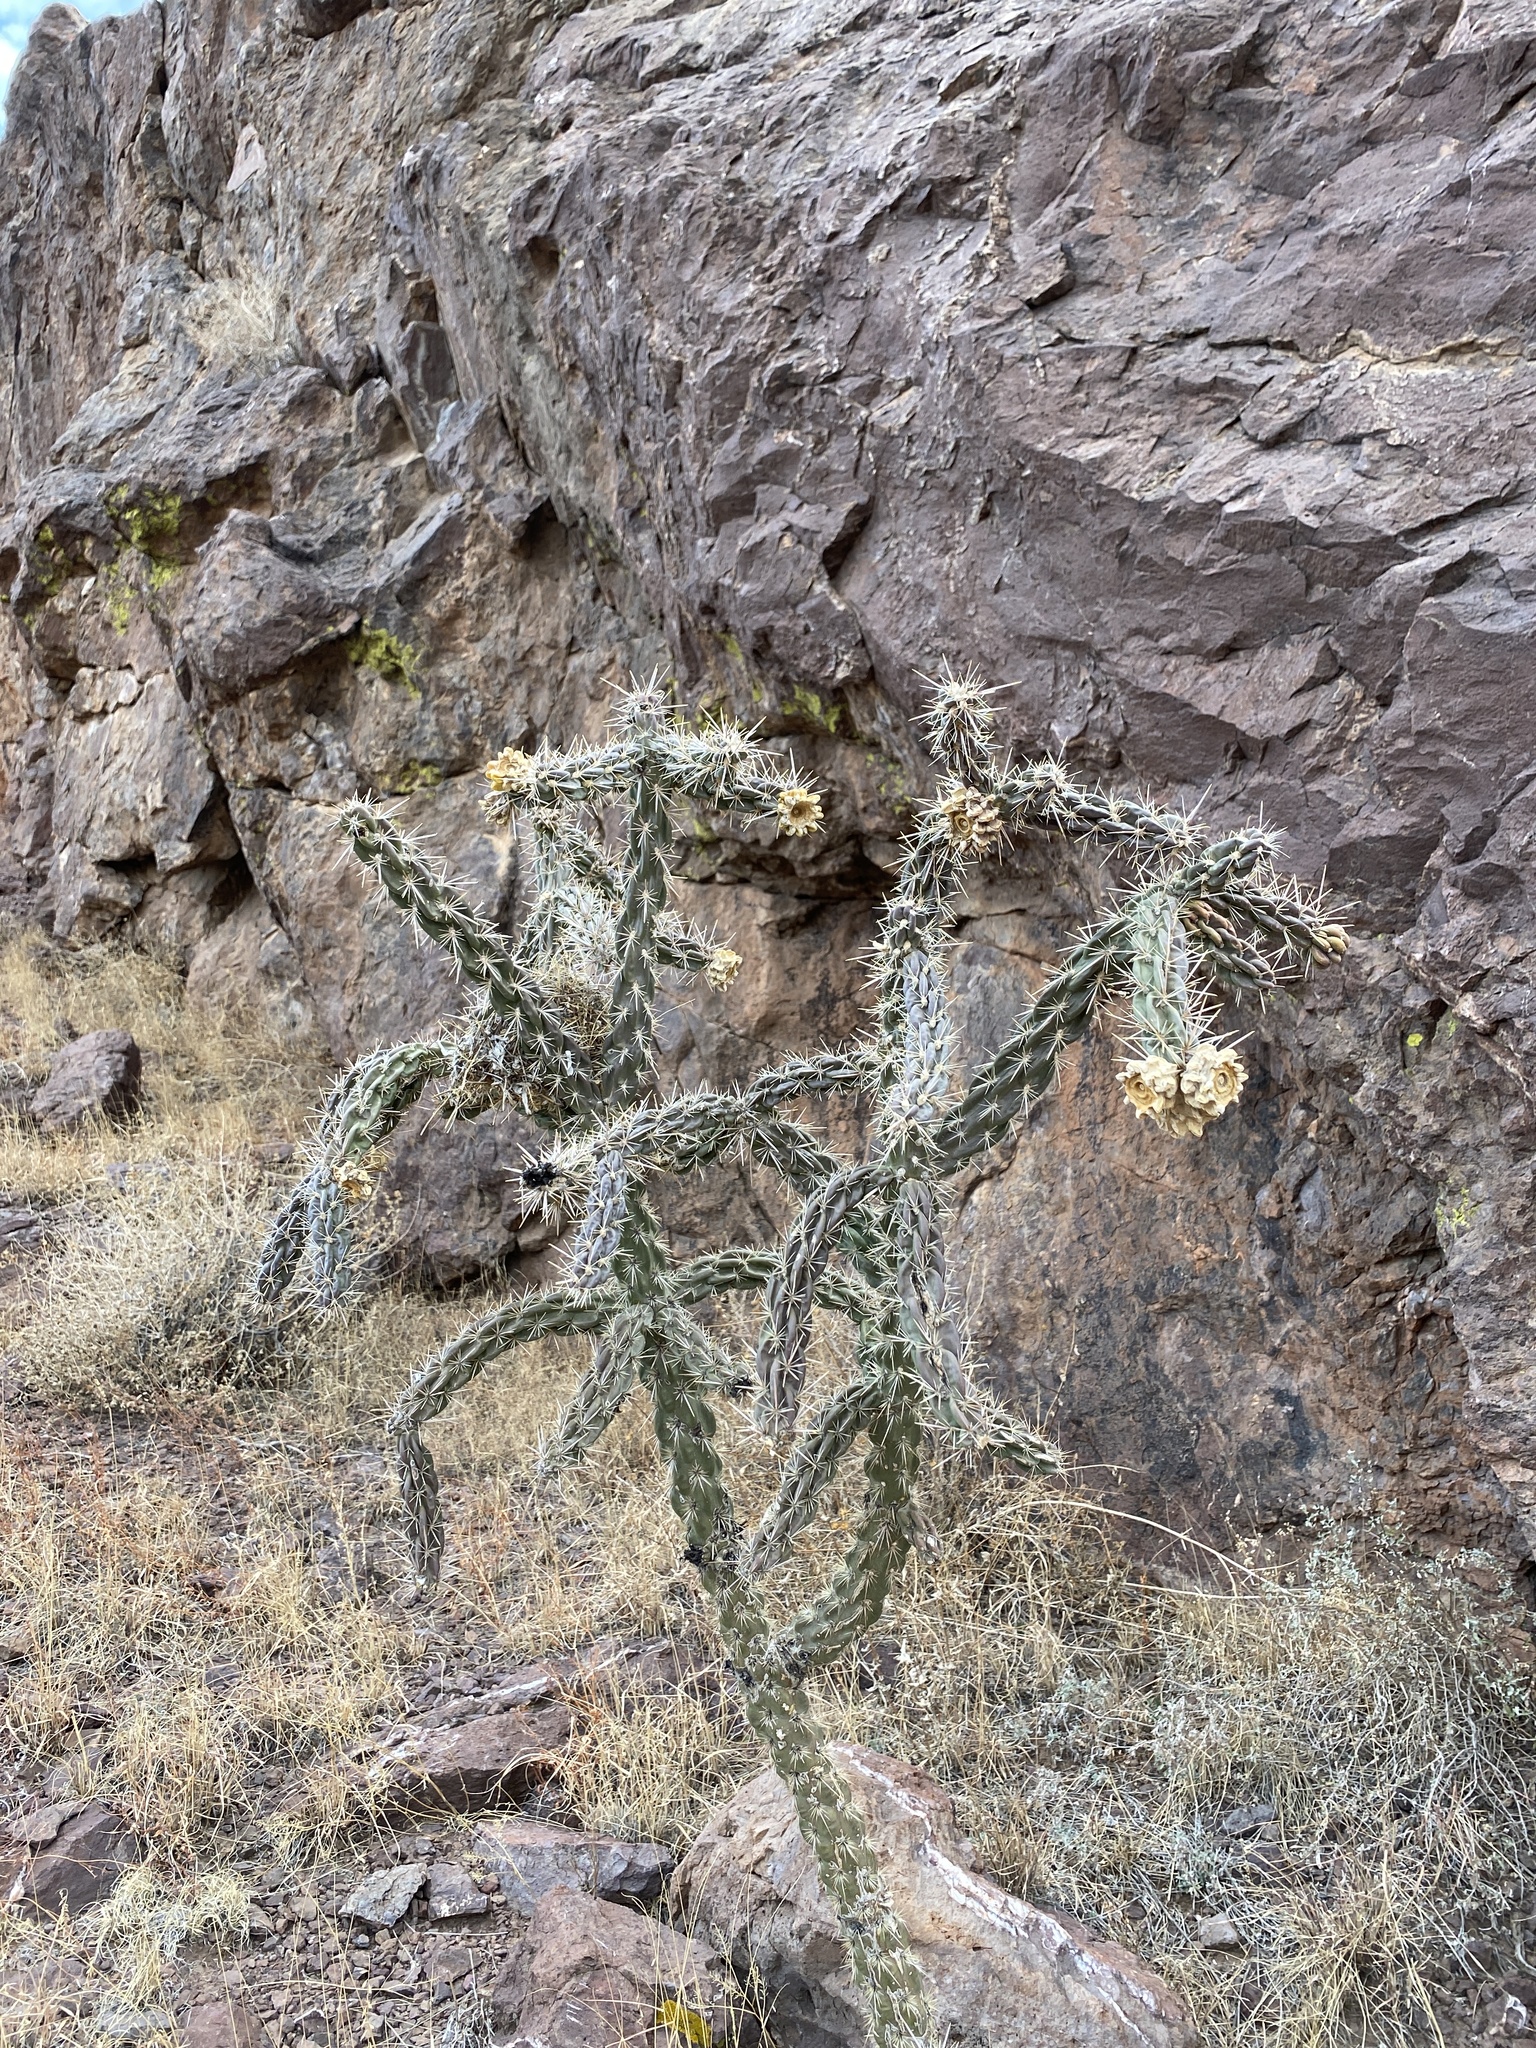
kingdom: Plantae
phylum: Tracheophyta
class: Magnoliopsida
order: Caryophyllales
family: Cactaceae
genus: Cylindropuntia
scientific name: Cylindropuntia imbricata
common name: Candelabrum cactus
